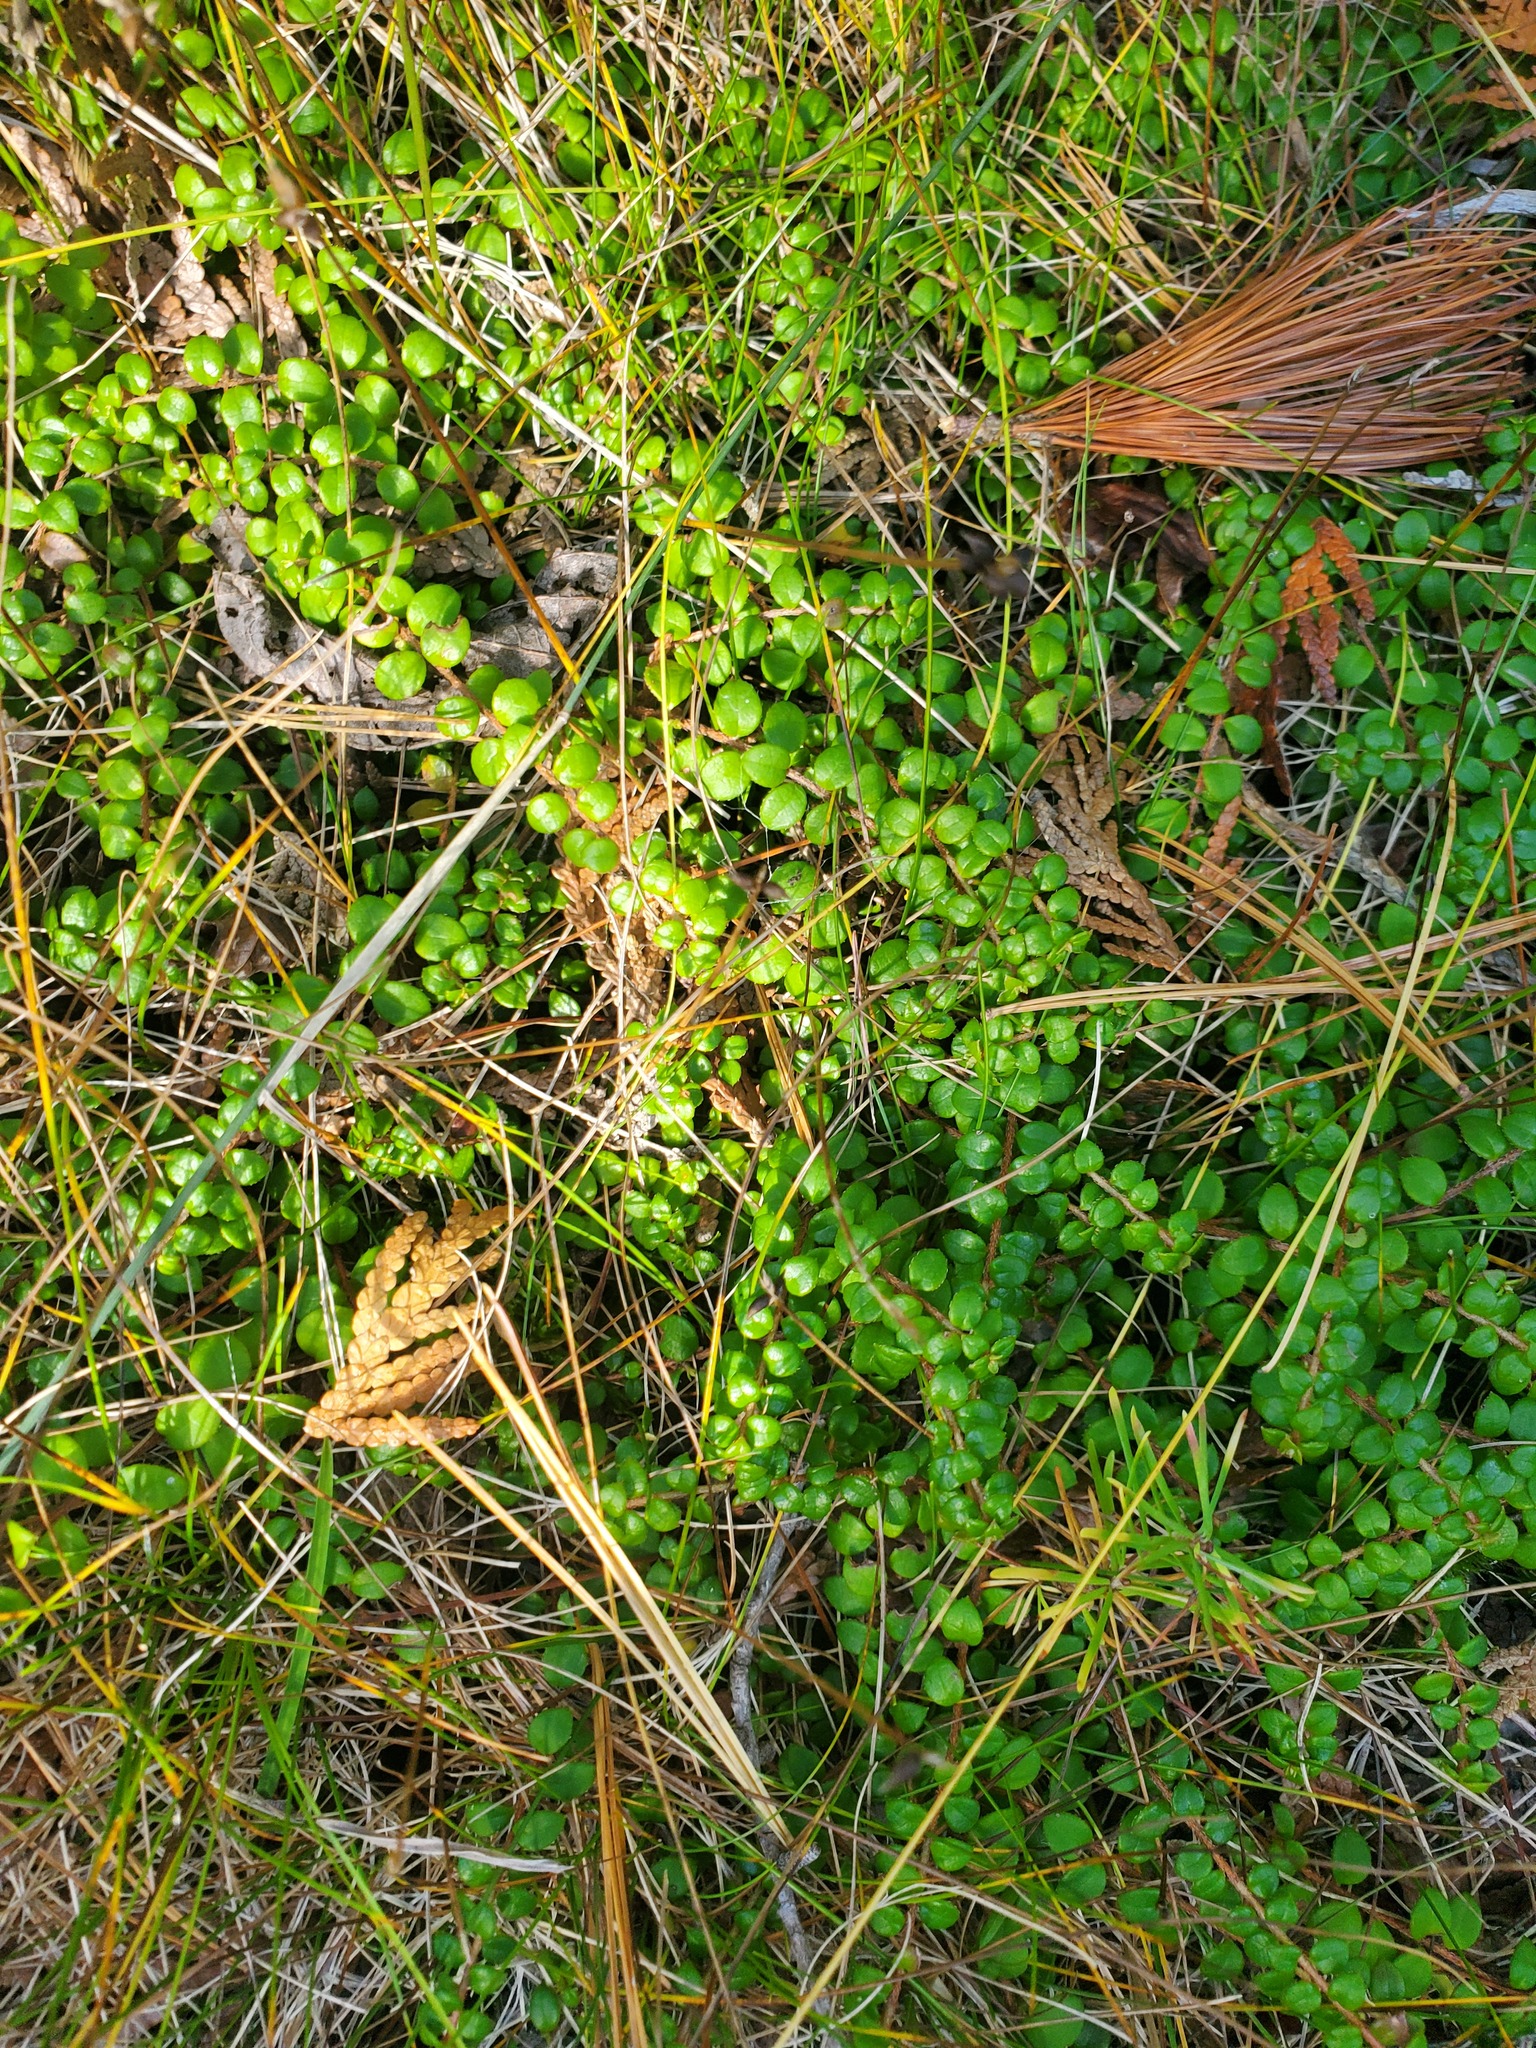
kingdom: Plantae
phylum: Tracheophyta
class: Magnoliopsida
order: Ericales
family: Ericaceae
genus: Gaultheria
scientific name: Gaultheria hispidula
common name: Cancer wintergreen
